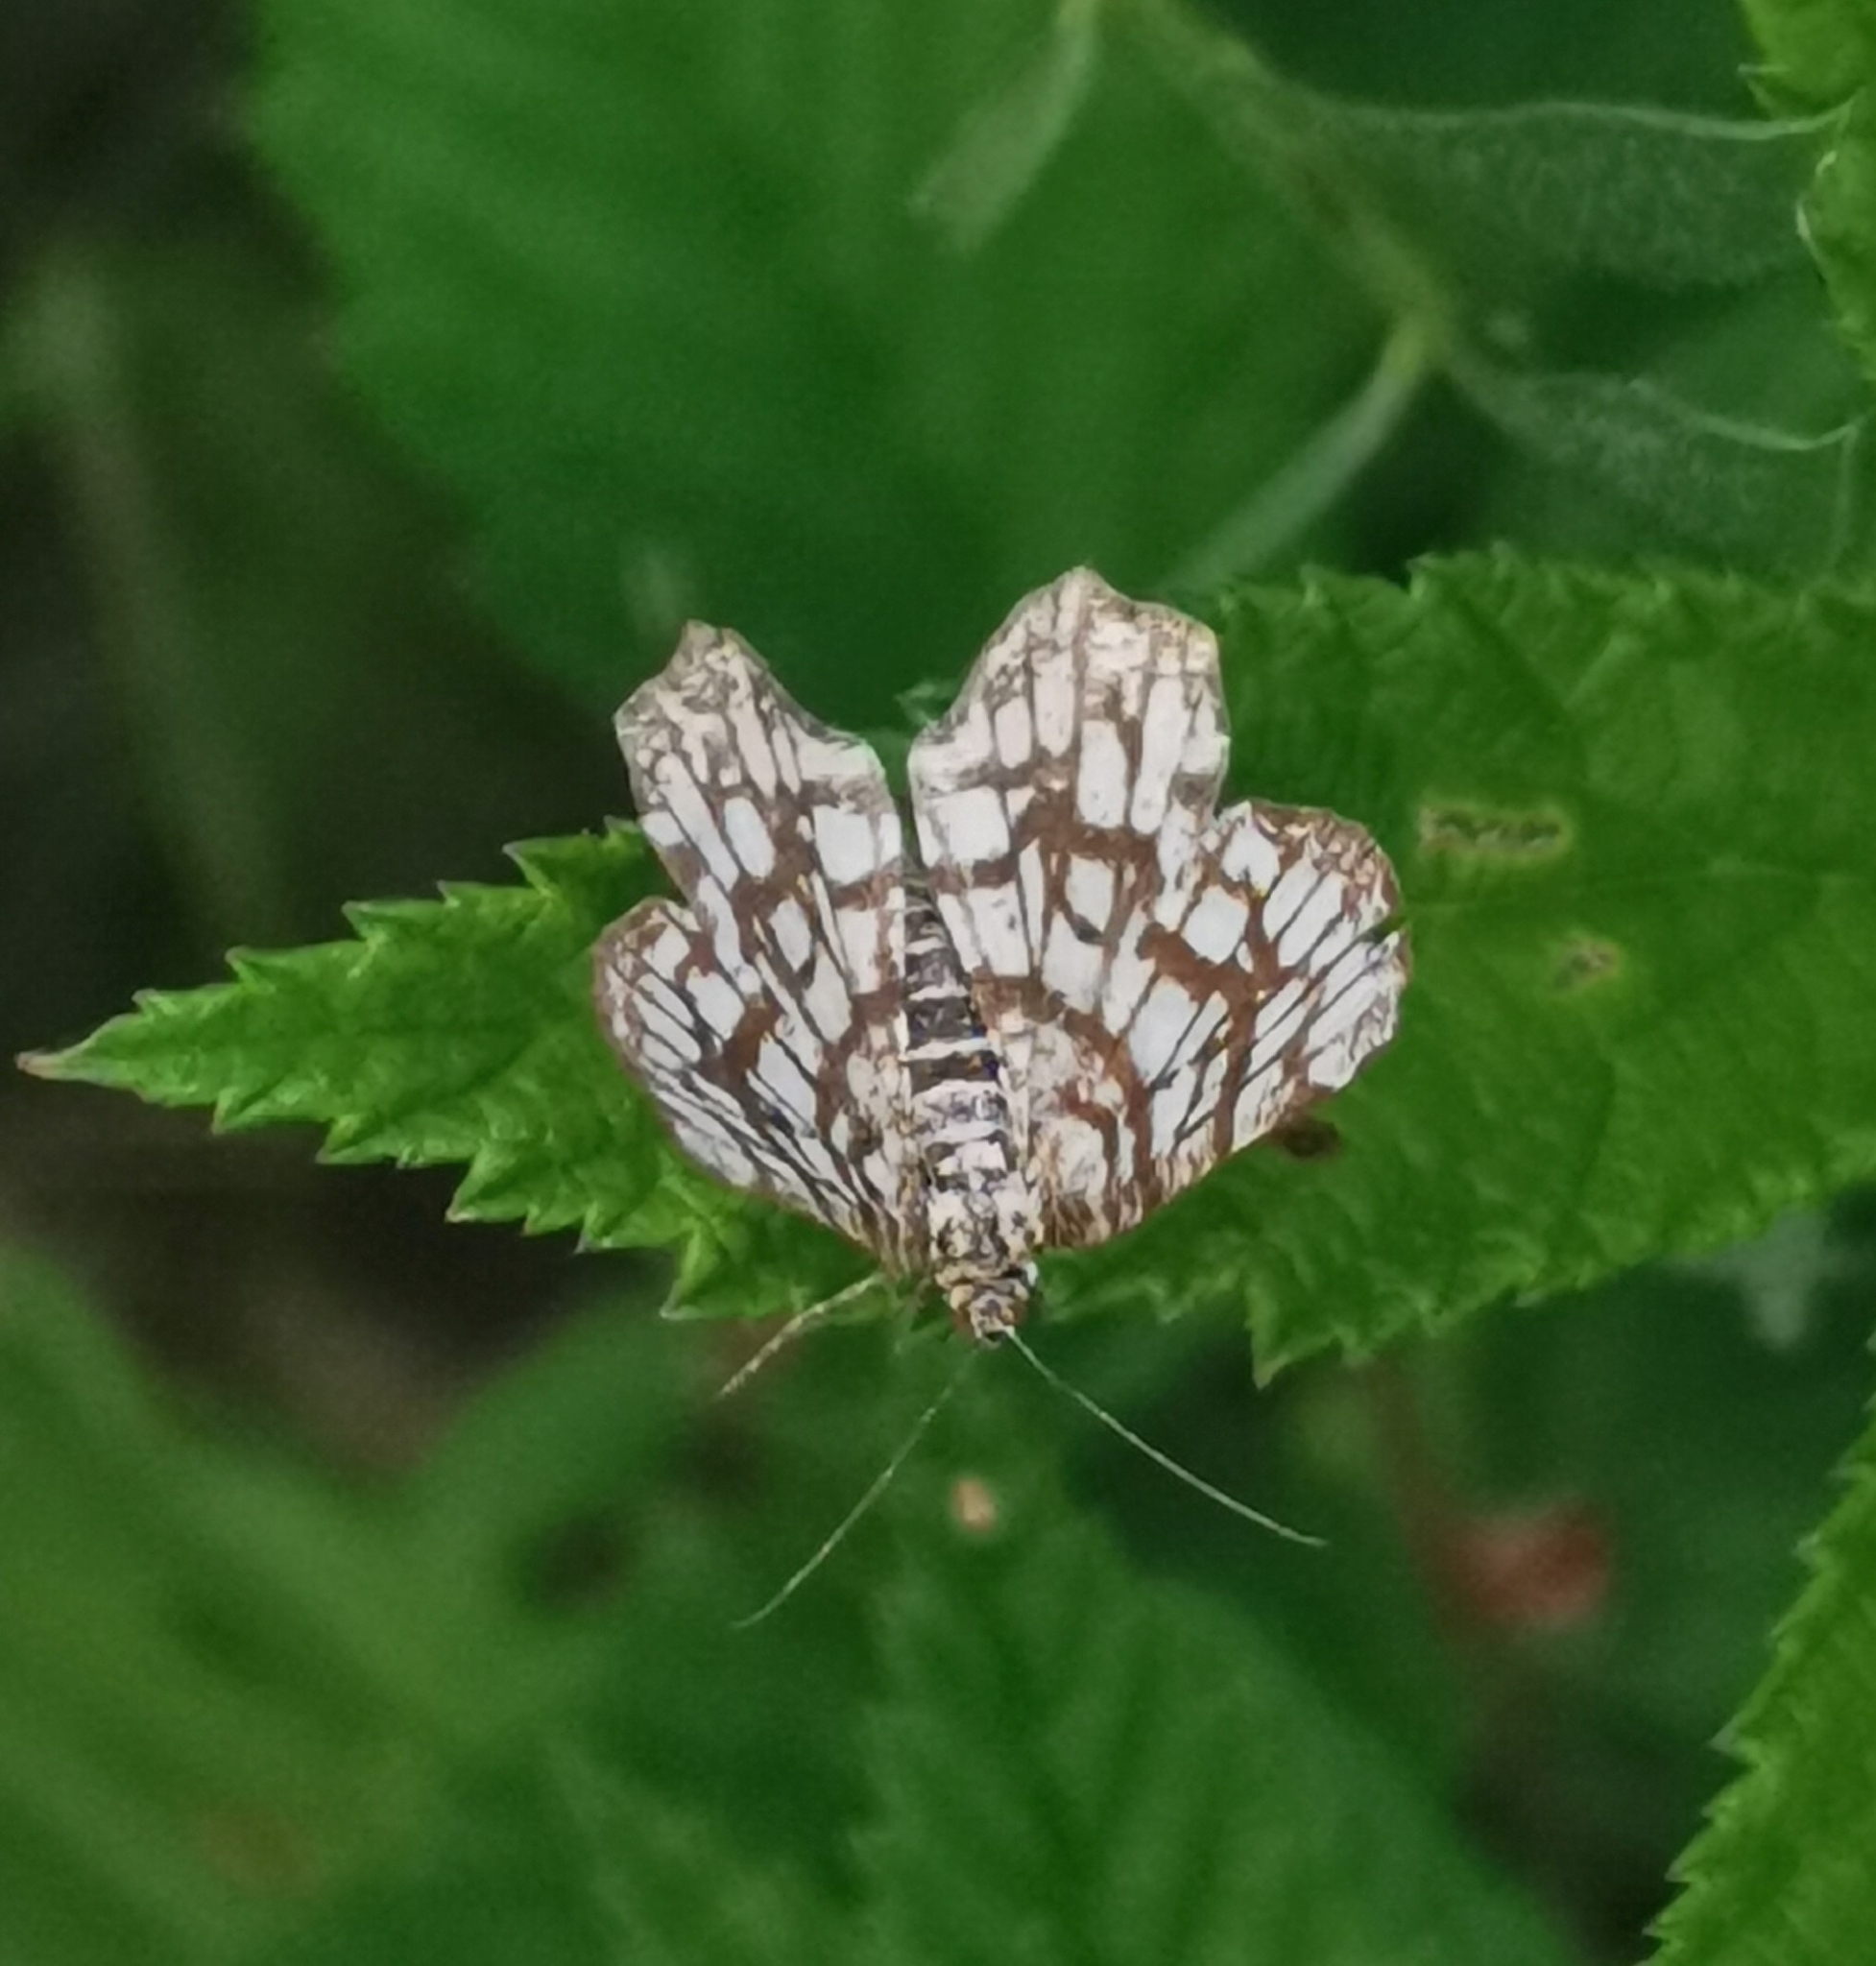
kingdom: Animalia
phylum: Arthropoda
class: Insecta
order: Lepidoptera
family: Geometridae
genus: Chiasmia
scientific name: Chiasmia clathrata
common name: Latticed heath
